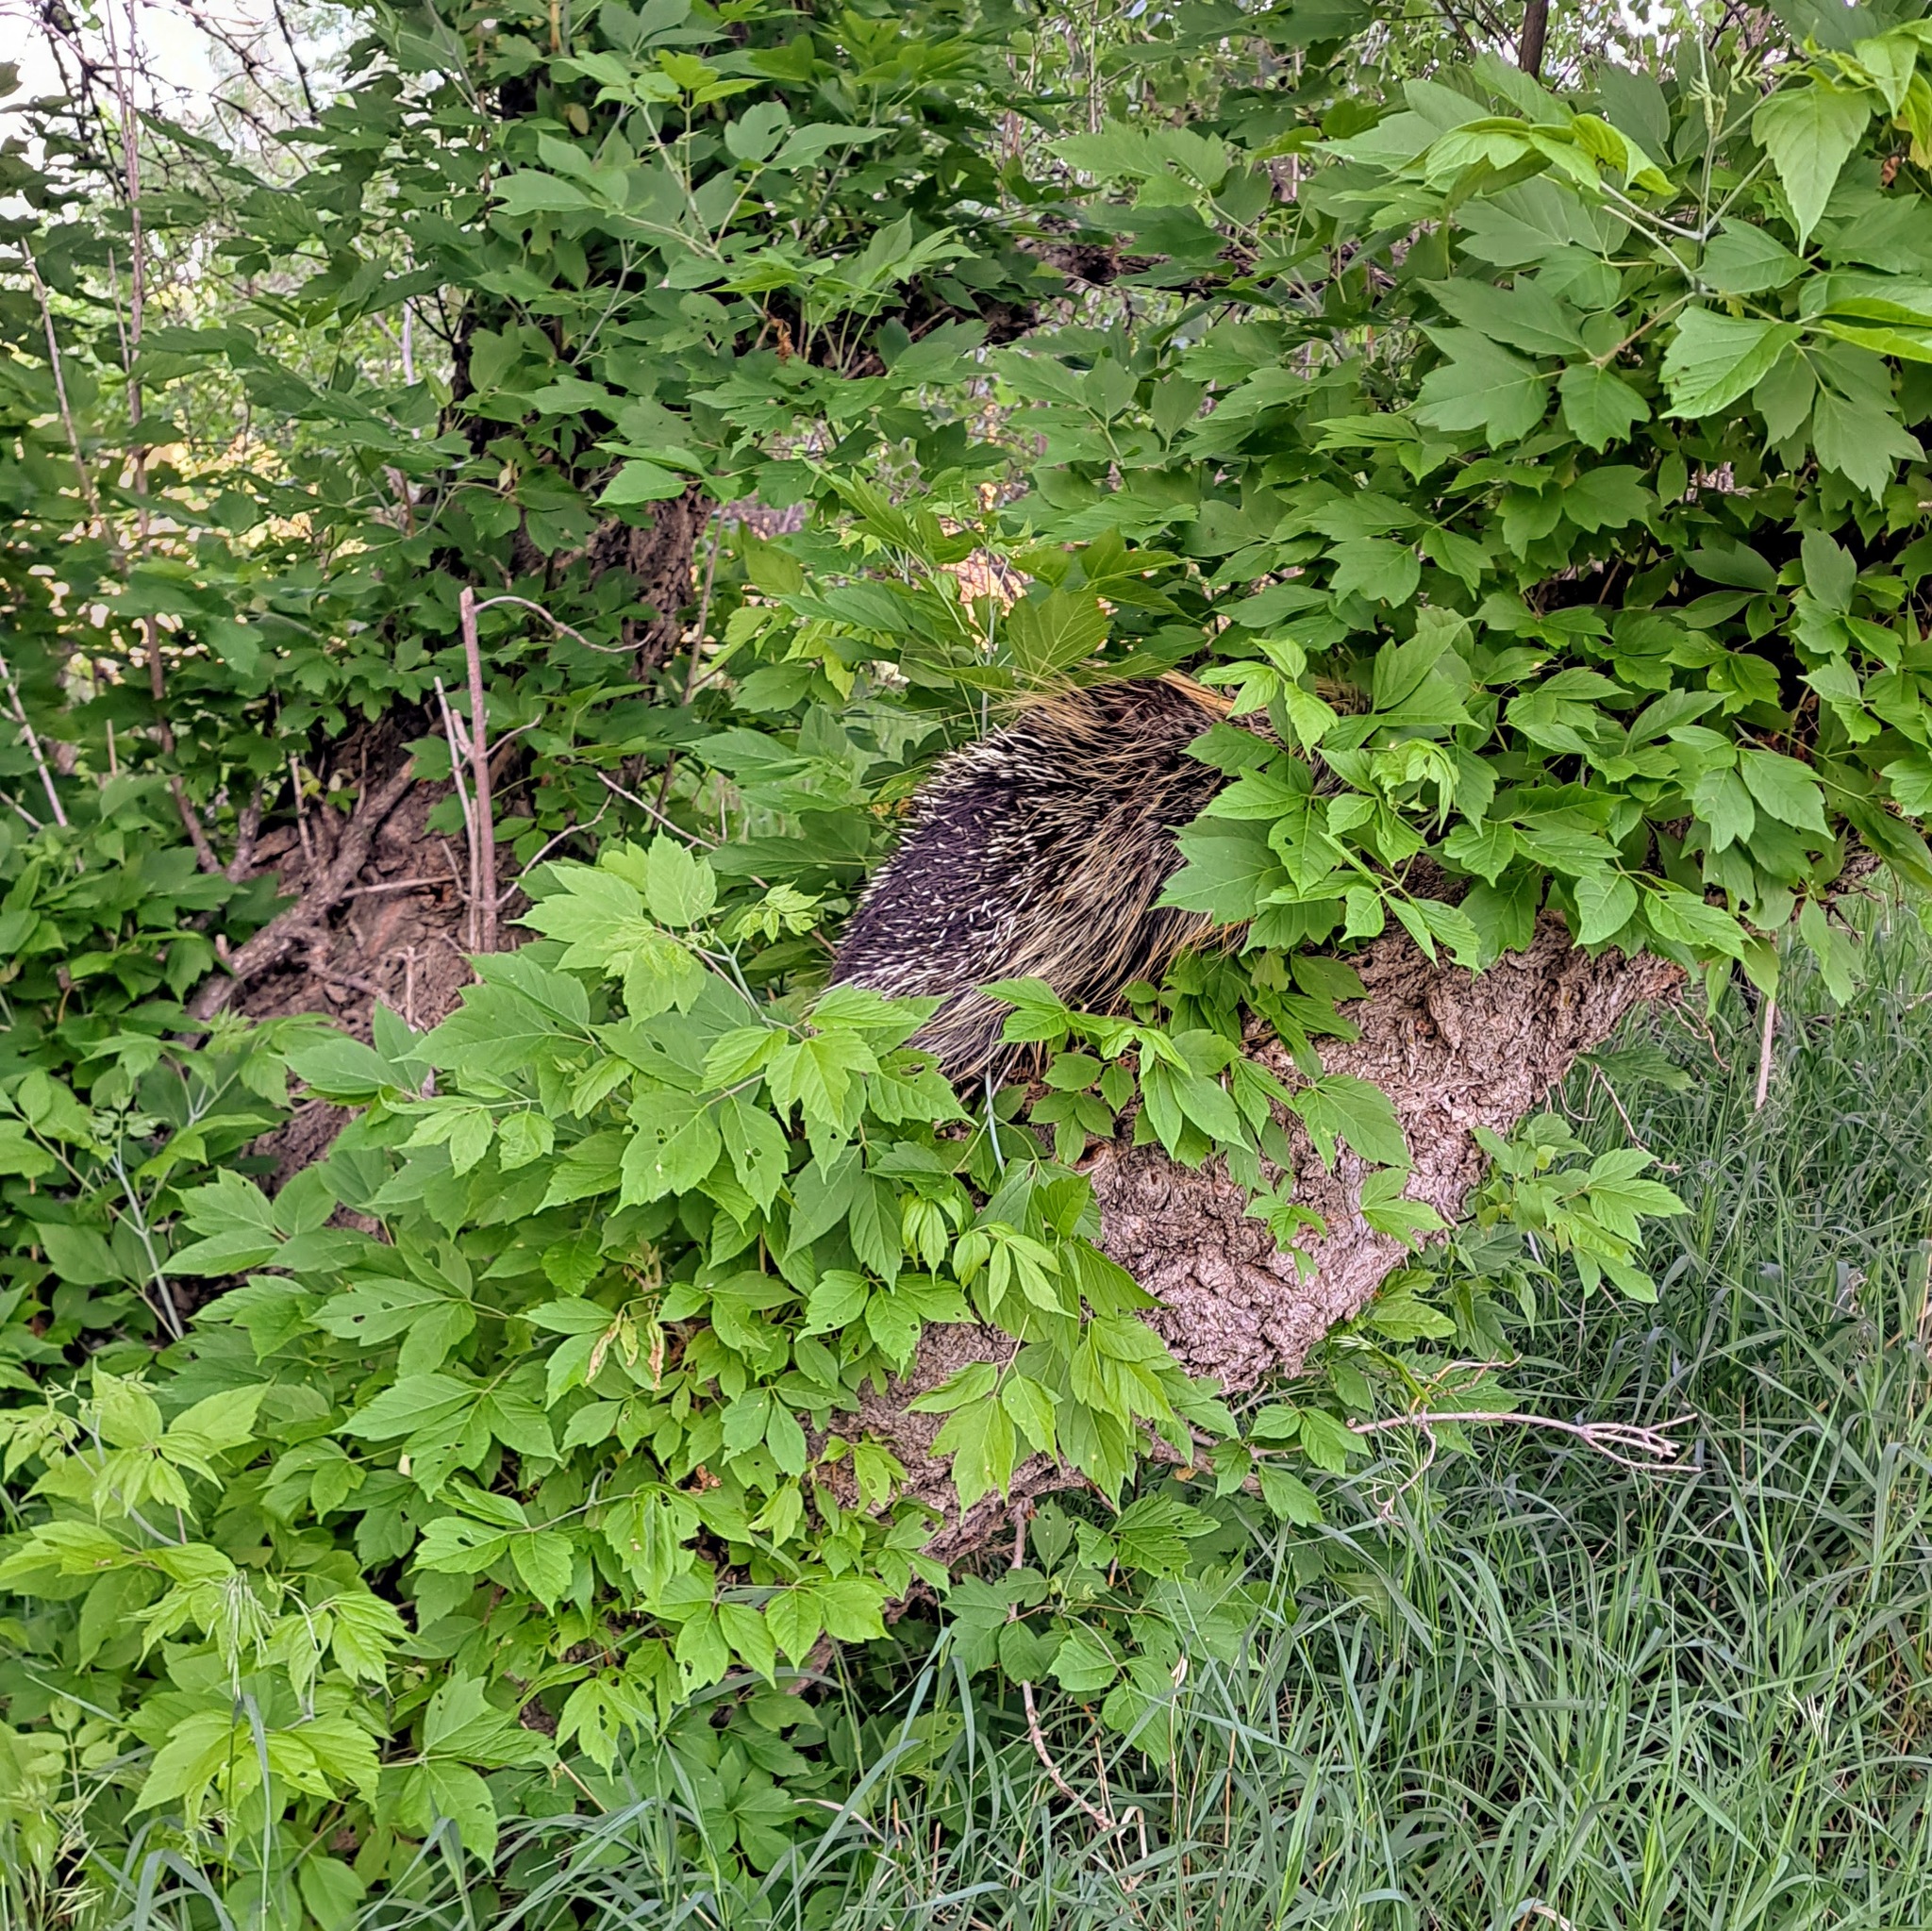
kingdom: Animalia
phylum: Chordata
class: Mammalia
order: Rodentia
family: Erethizontidae
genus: Erethizon
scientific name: Erethizon dorsatus
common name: North american porcupine
